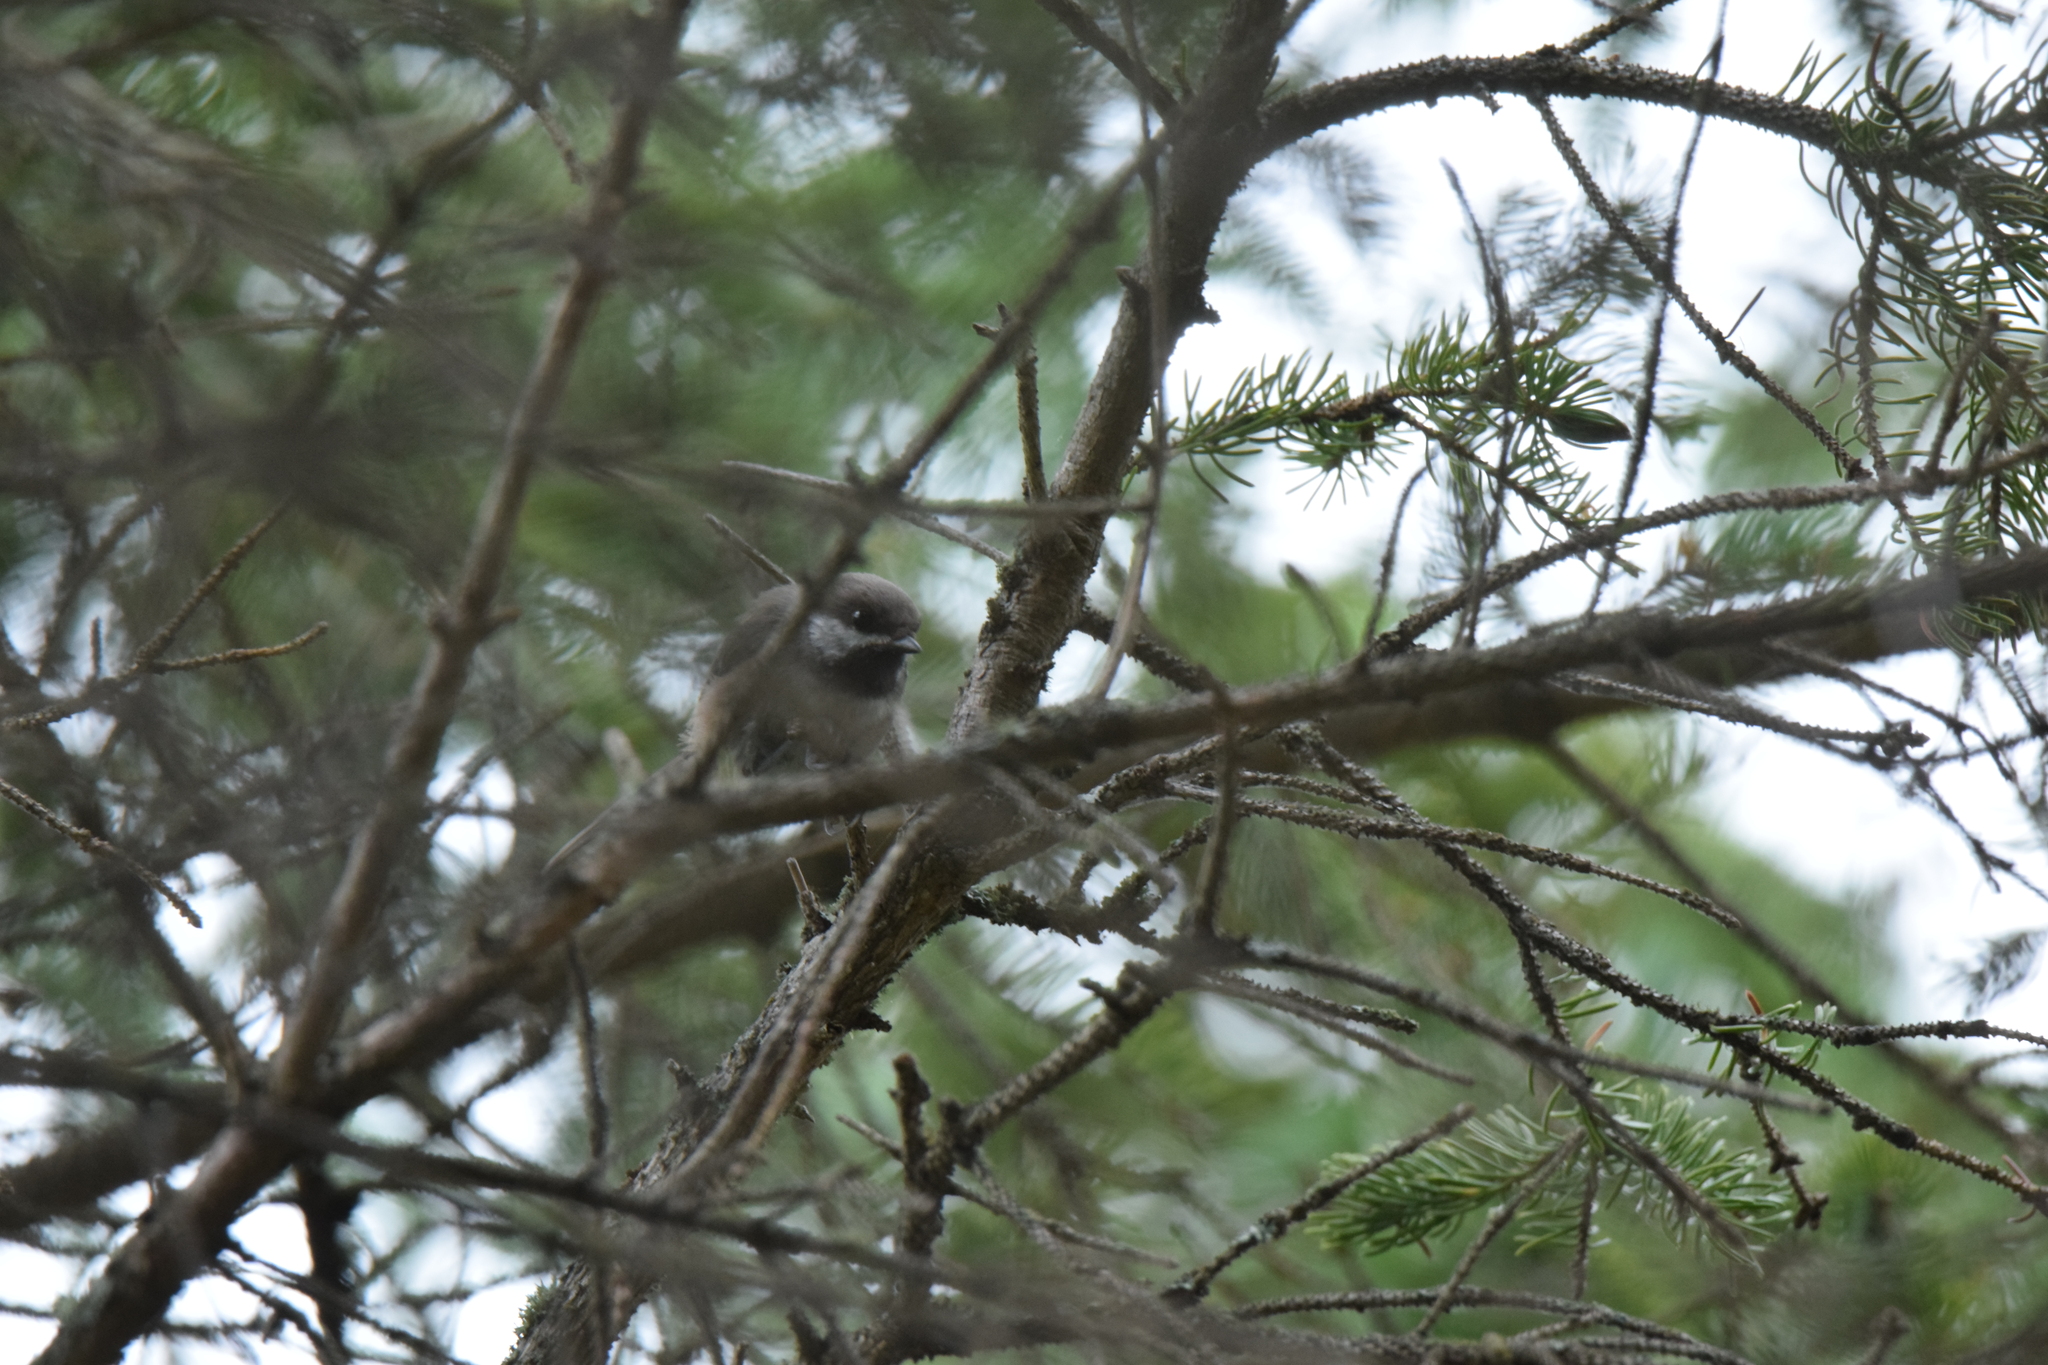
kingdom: Animalia
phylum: Chordata
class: Aves
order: Passeriformes
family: Paridae
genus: Poecile
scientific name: Poecile hudsonicus
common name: Boreal chickadee
